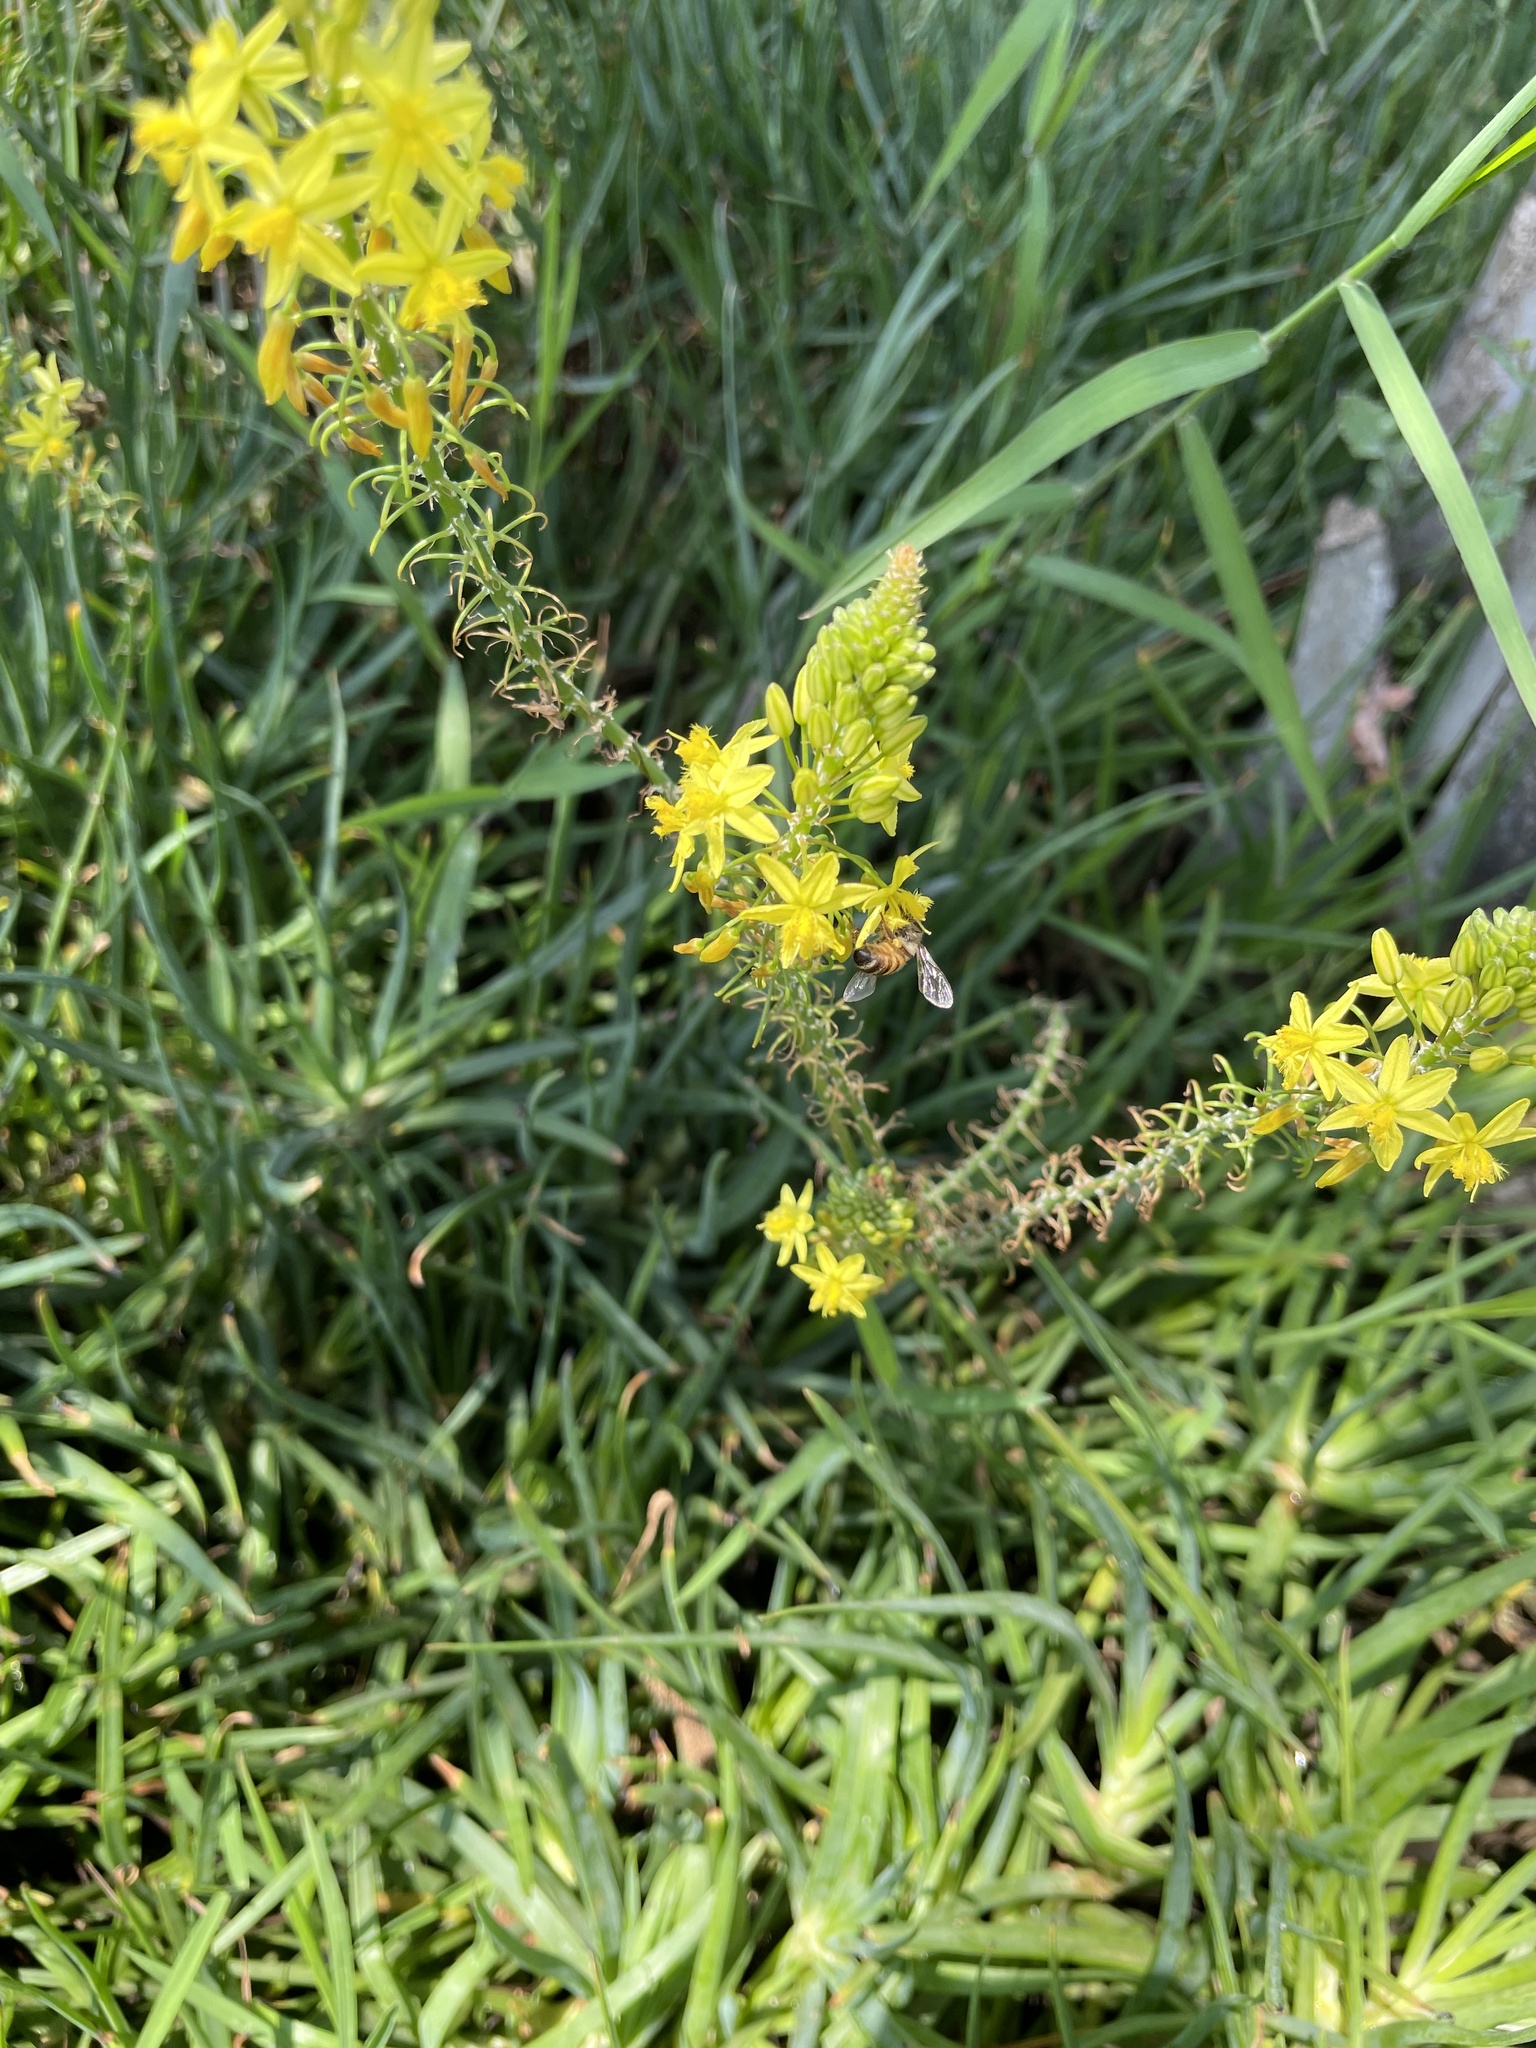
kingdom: Animalia
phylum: Arthropoda
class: Insecta
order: Hymenoptera
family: Apidae
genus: Apis
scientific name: Apis mellifera
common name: Honey bee
